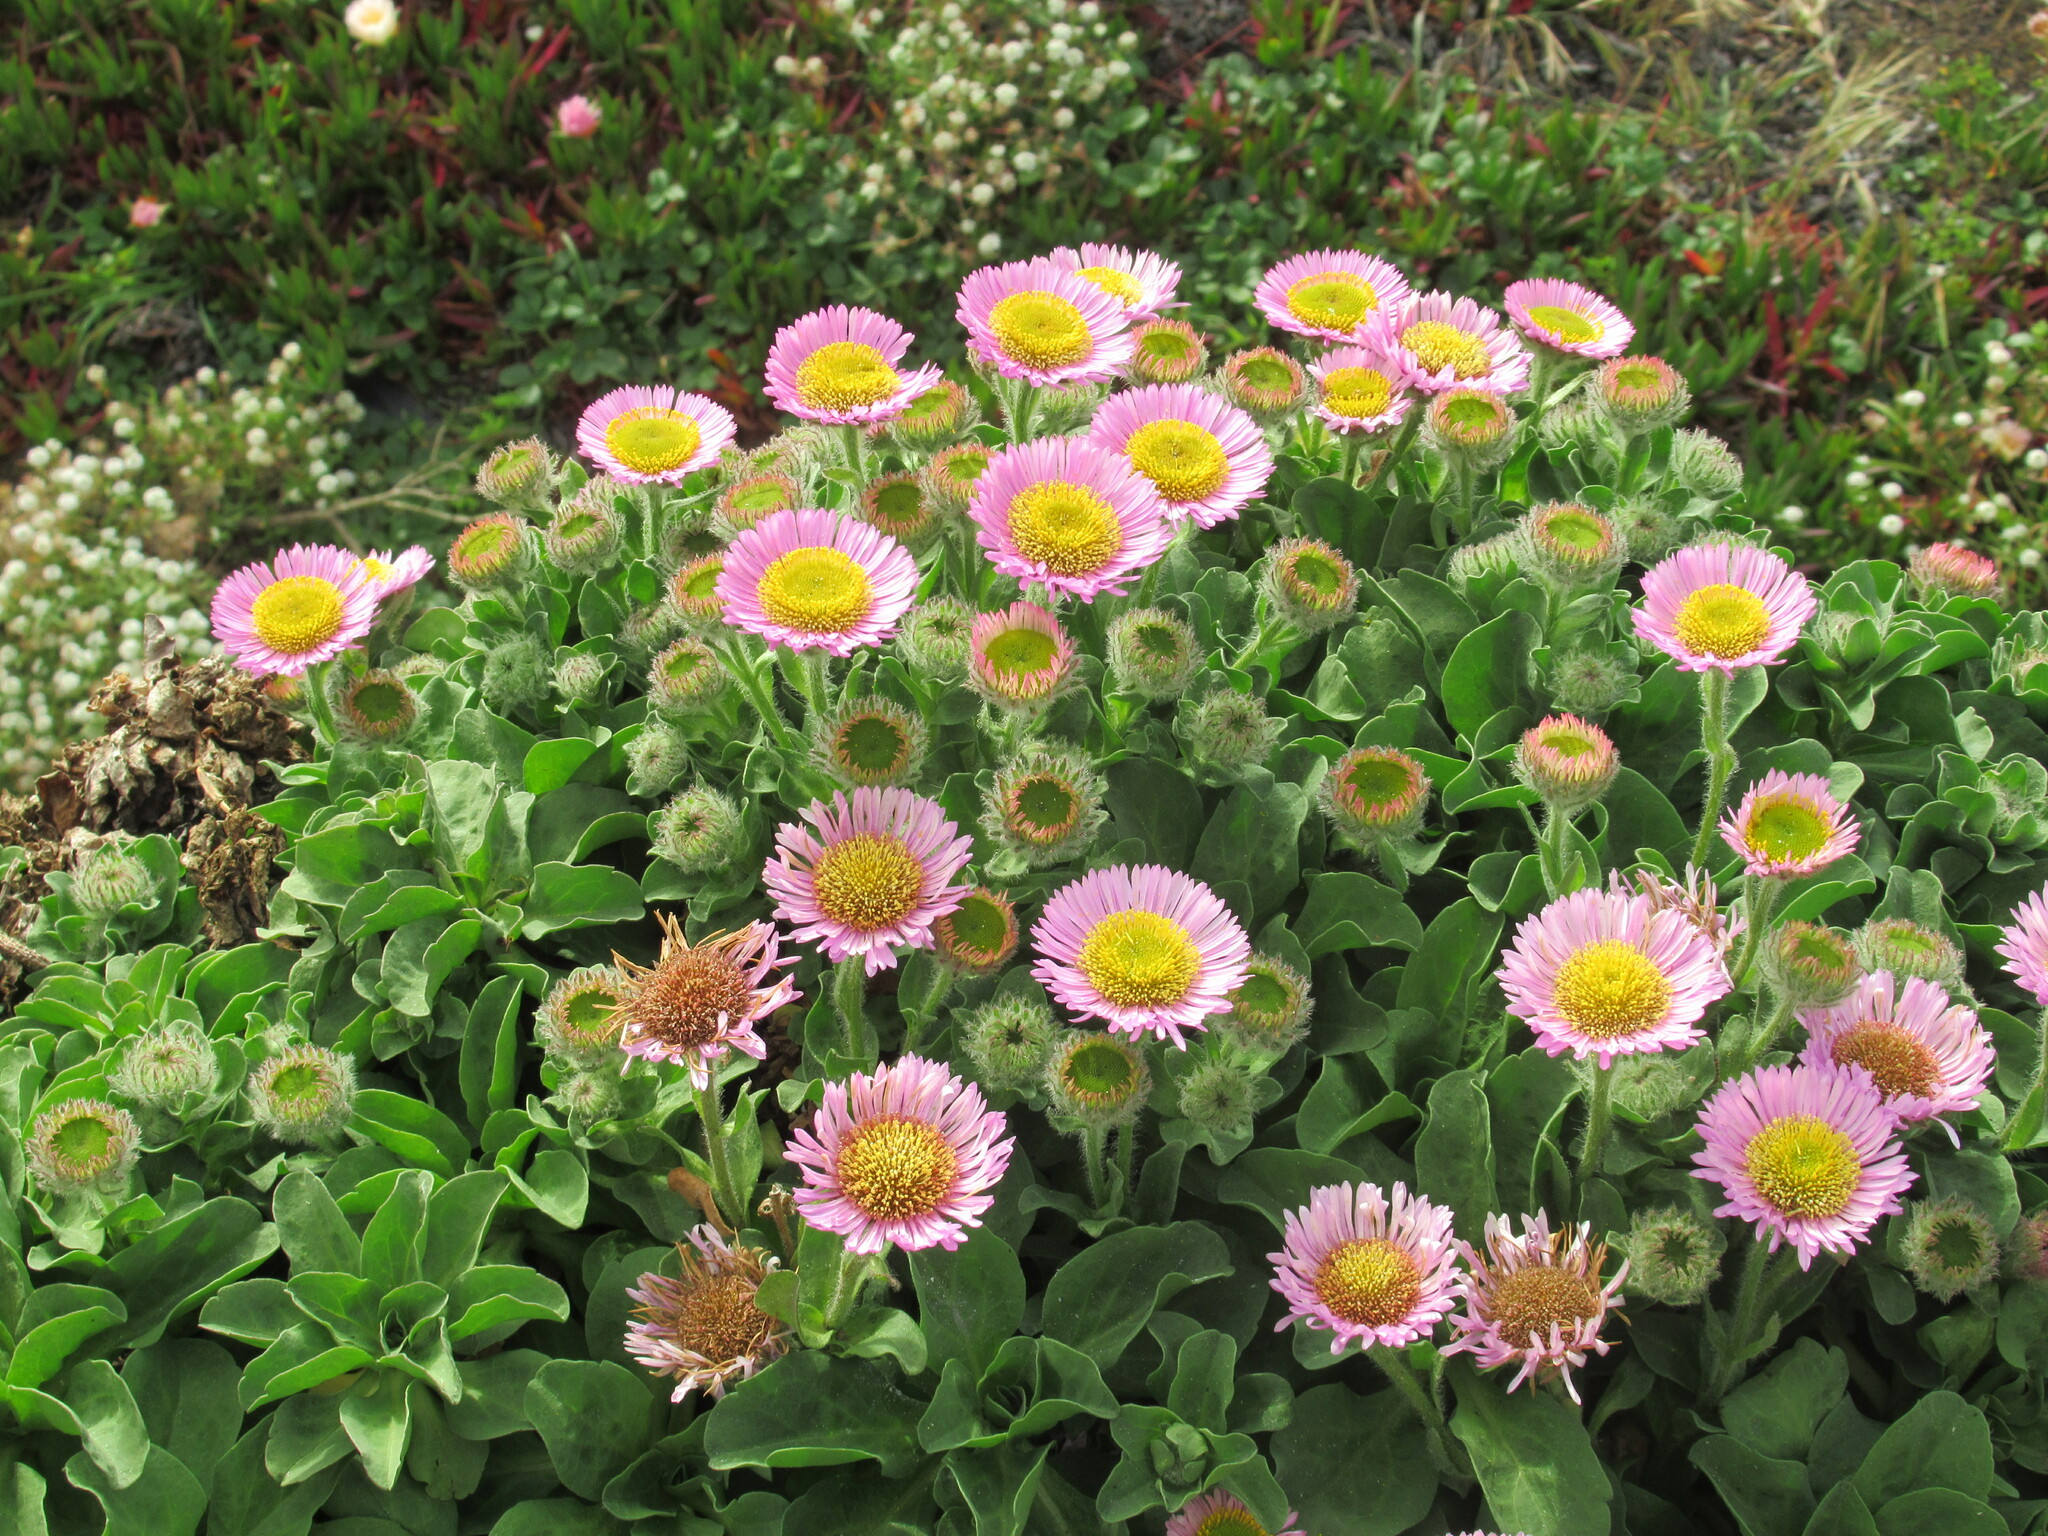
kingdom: Plantae
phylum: Tracheophyta
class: Magnoliopsida
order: Asterales
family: Asteraceae
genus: Erigeron
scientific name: Erigeron glaucus
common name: Seaside daisy
